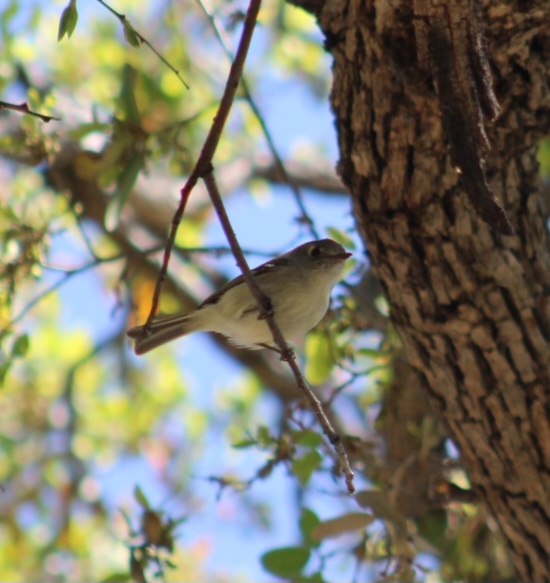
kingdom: Animalia
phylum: Chordata
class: Aves
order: Passeriformes
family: Vireonidae
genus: Vireo
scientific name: Vireo huttoni
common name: Hutton's vireo
